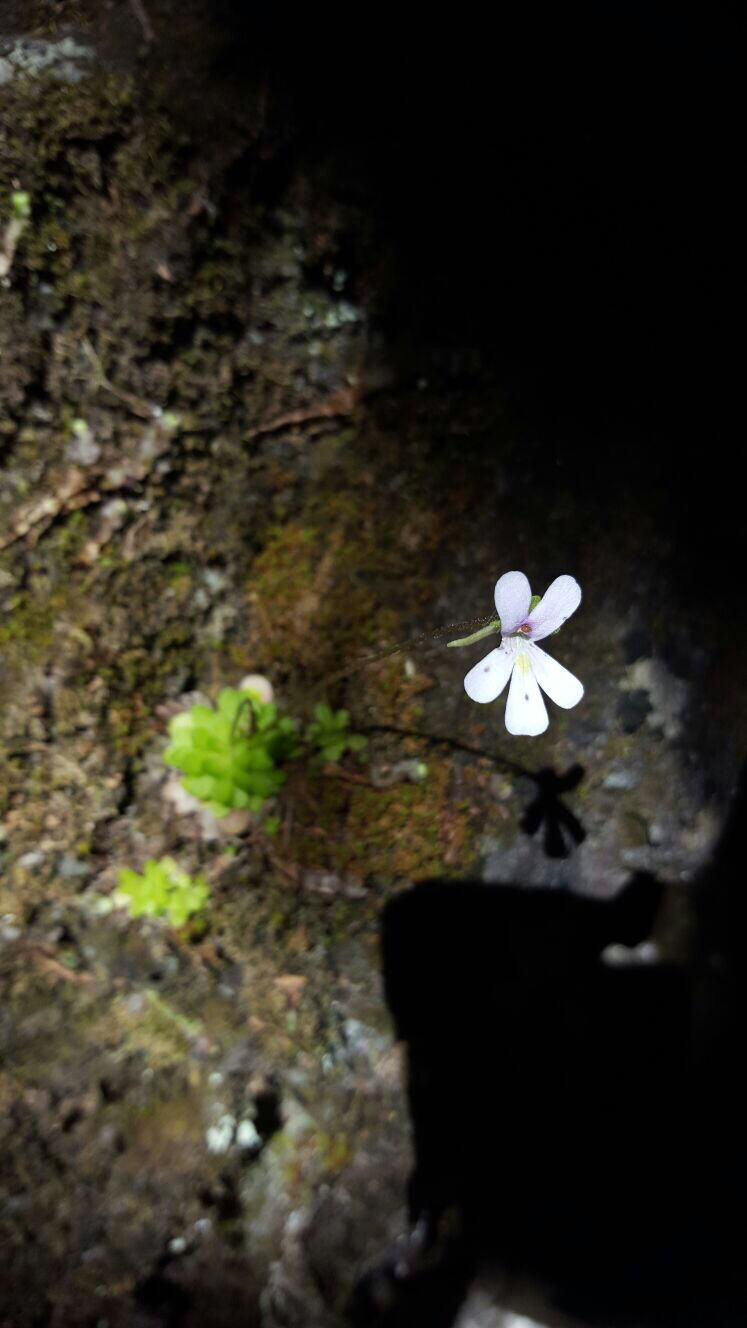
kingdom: Plantae
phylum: Tracheophyta
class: Magnoliopsida
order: Lamiales
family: Lentibulariaceae
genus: Pinguicula
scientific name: Pinguicula esseriana
